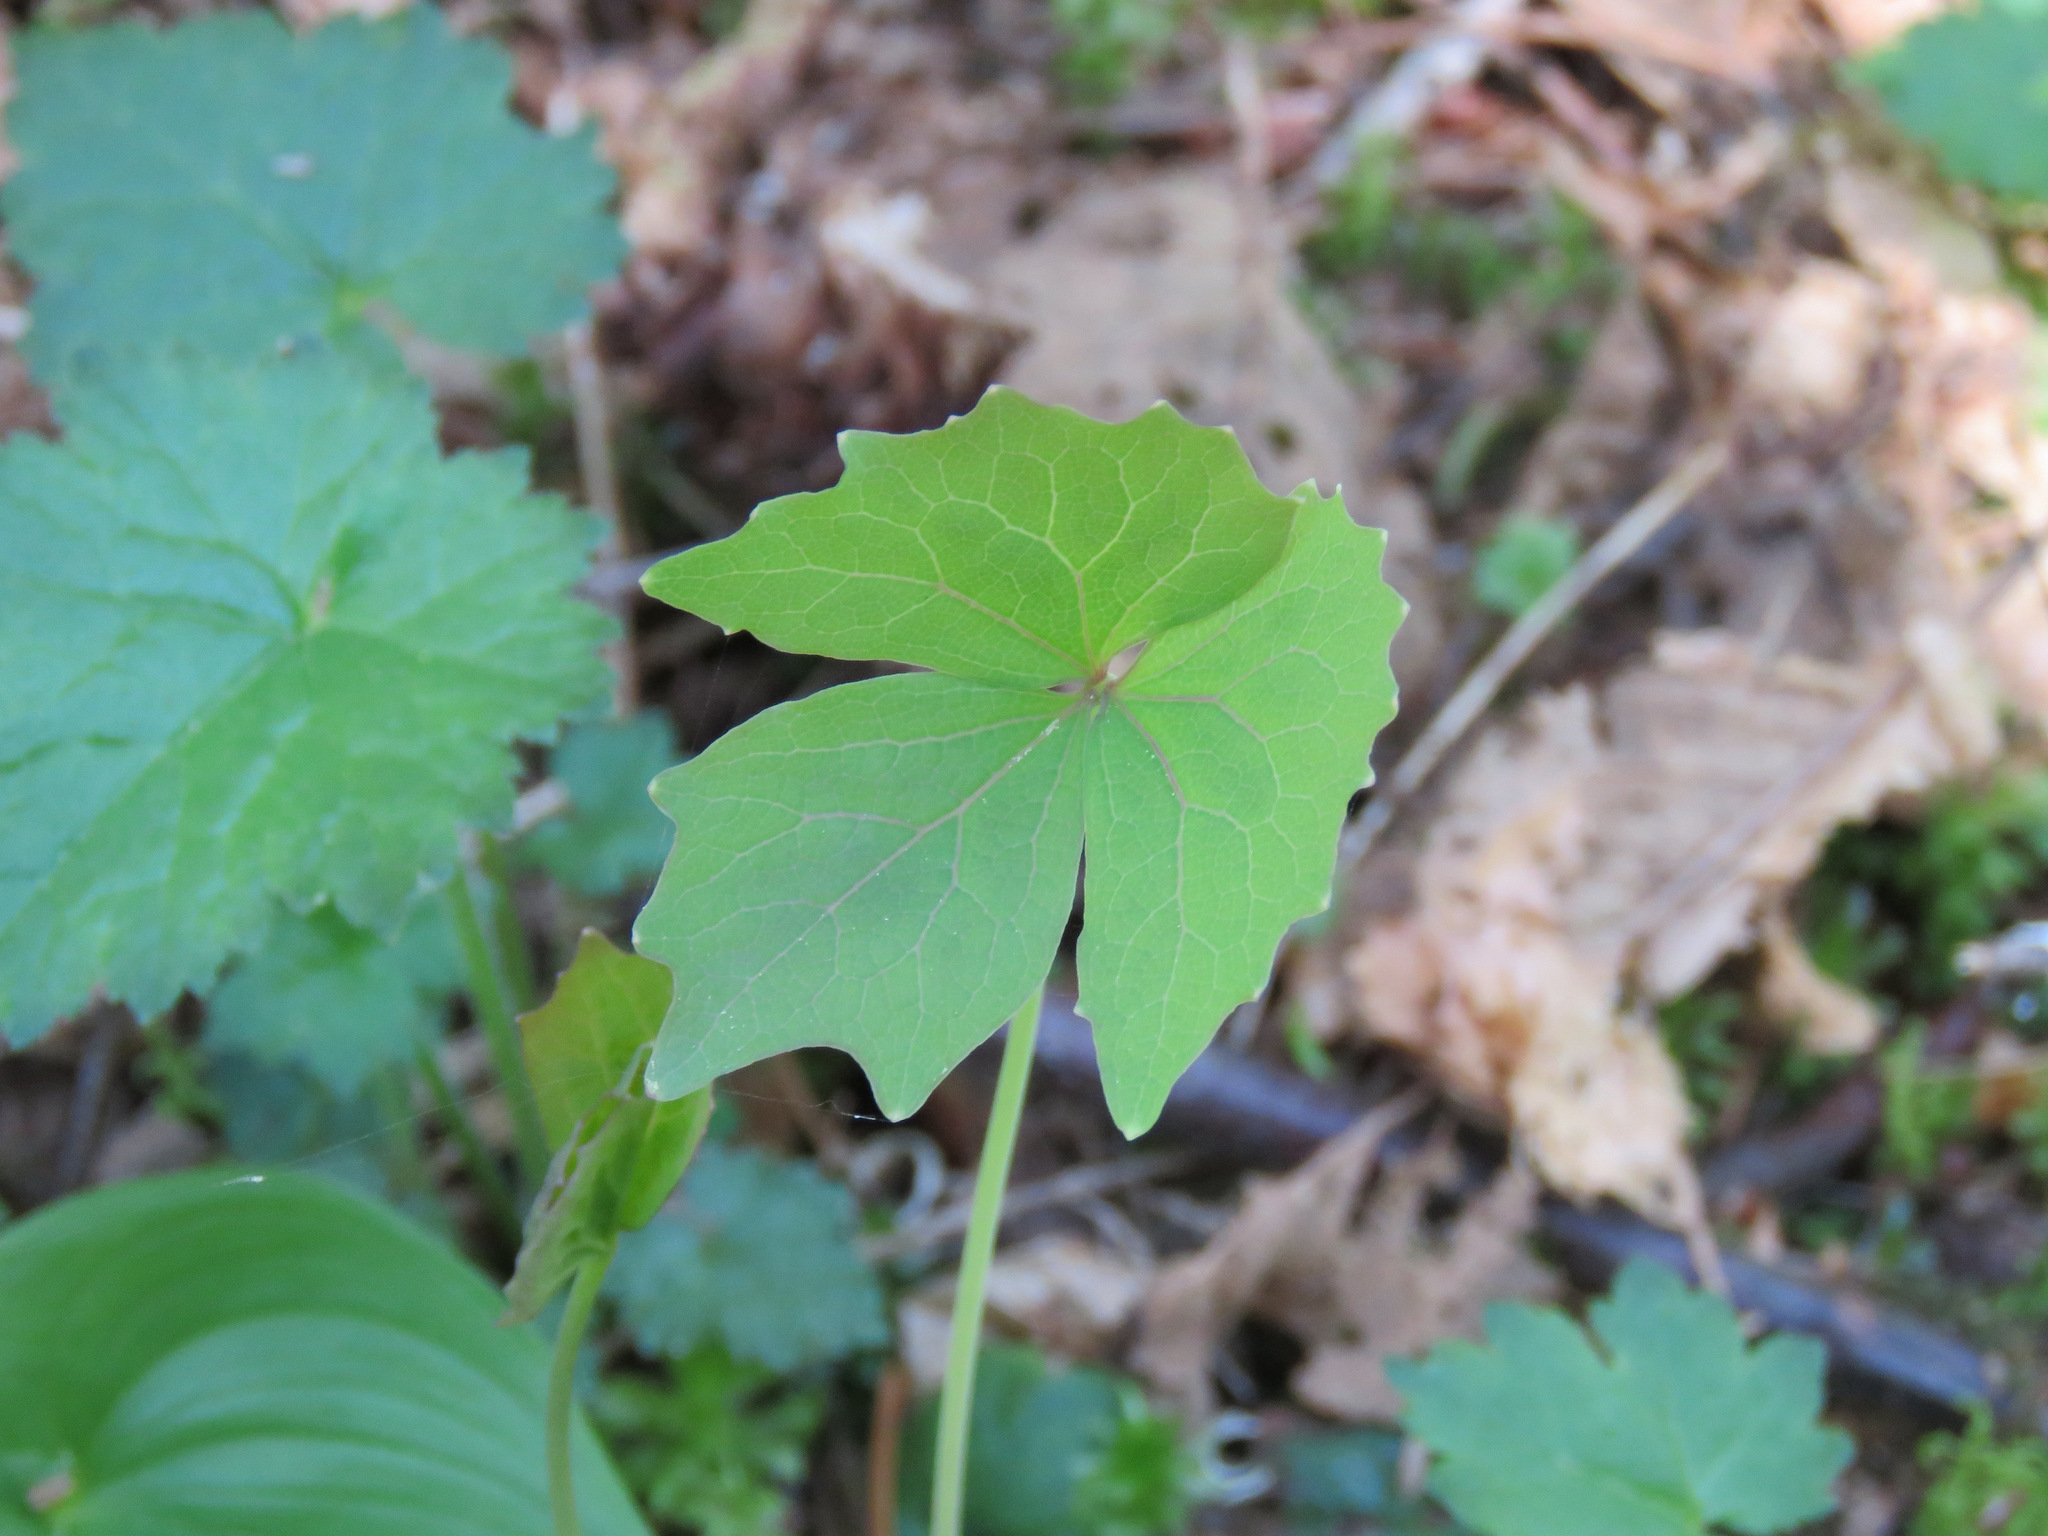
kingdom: Plantae
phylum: Tracheophyta
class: Magnoliopsida
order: Ranunculales
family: Berberidaceae
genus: Achlys
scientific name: Achlys triphylla
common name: Vanilla-leaf
